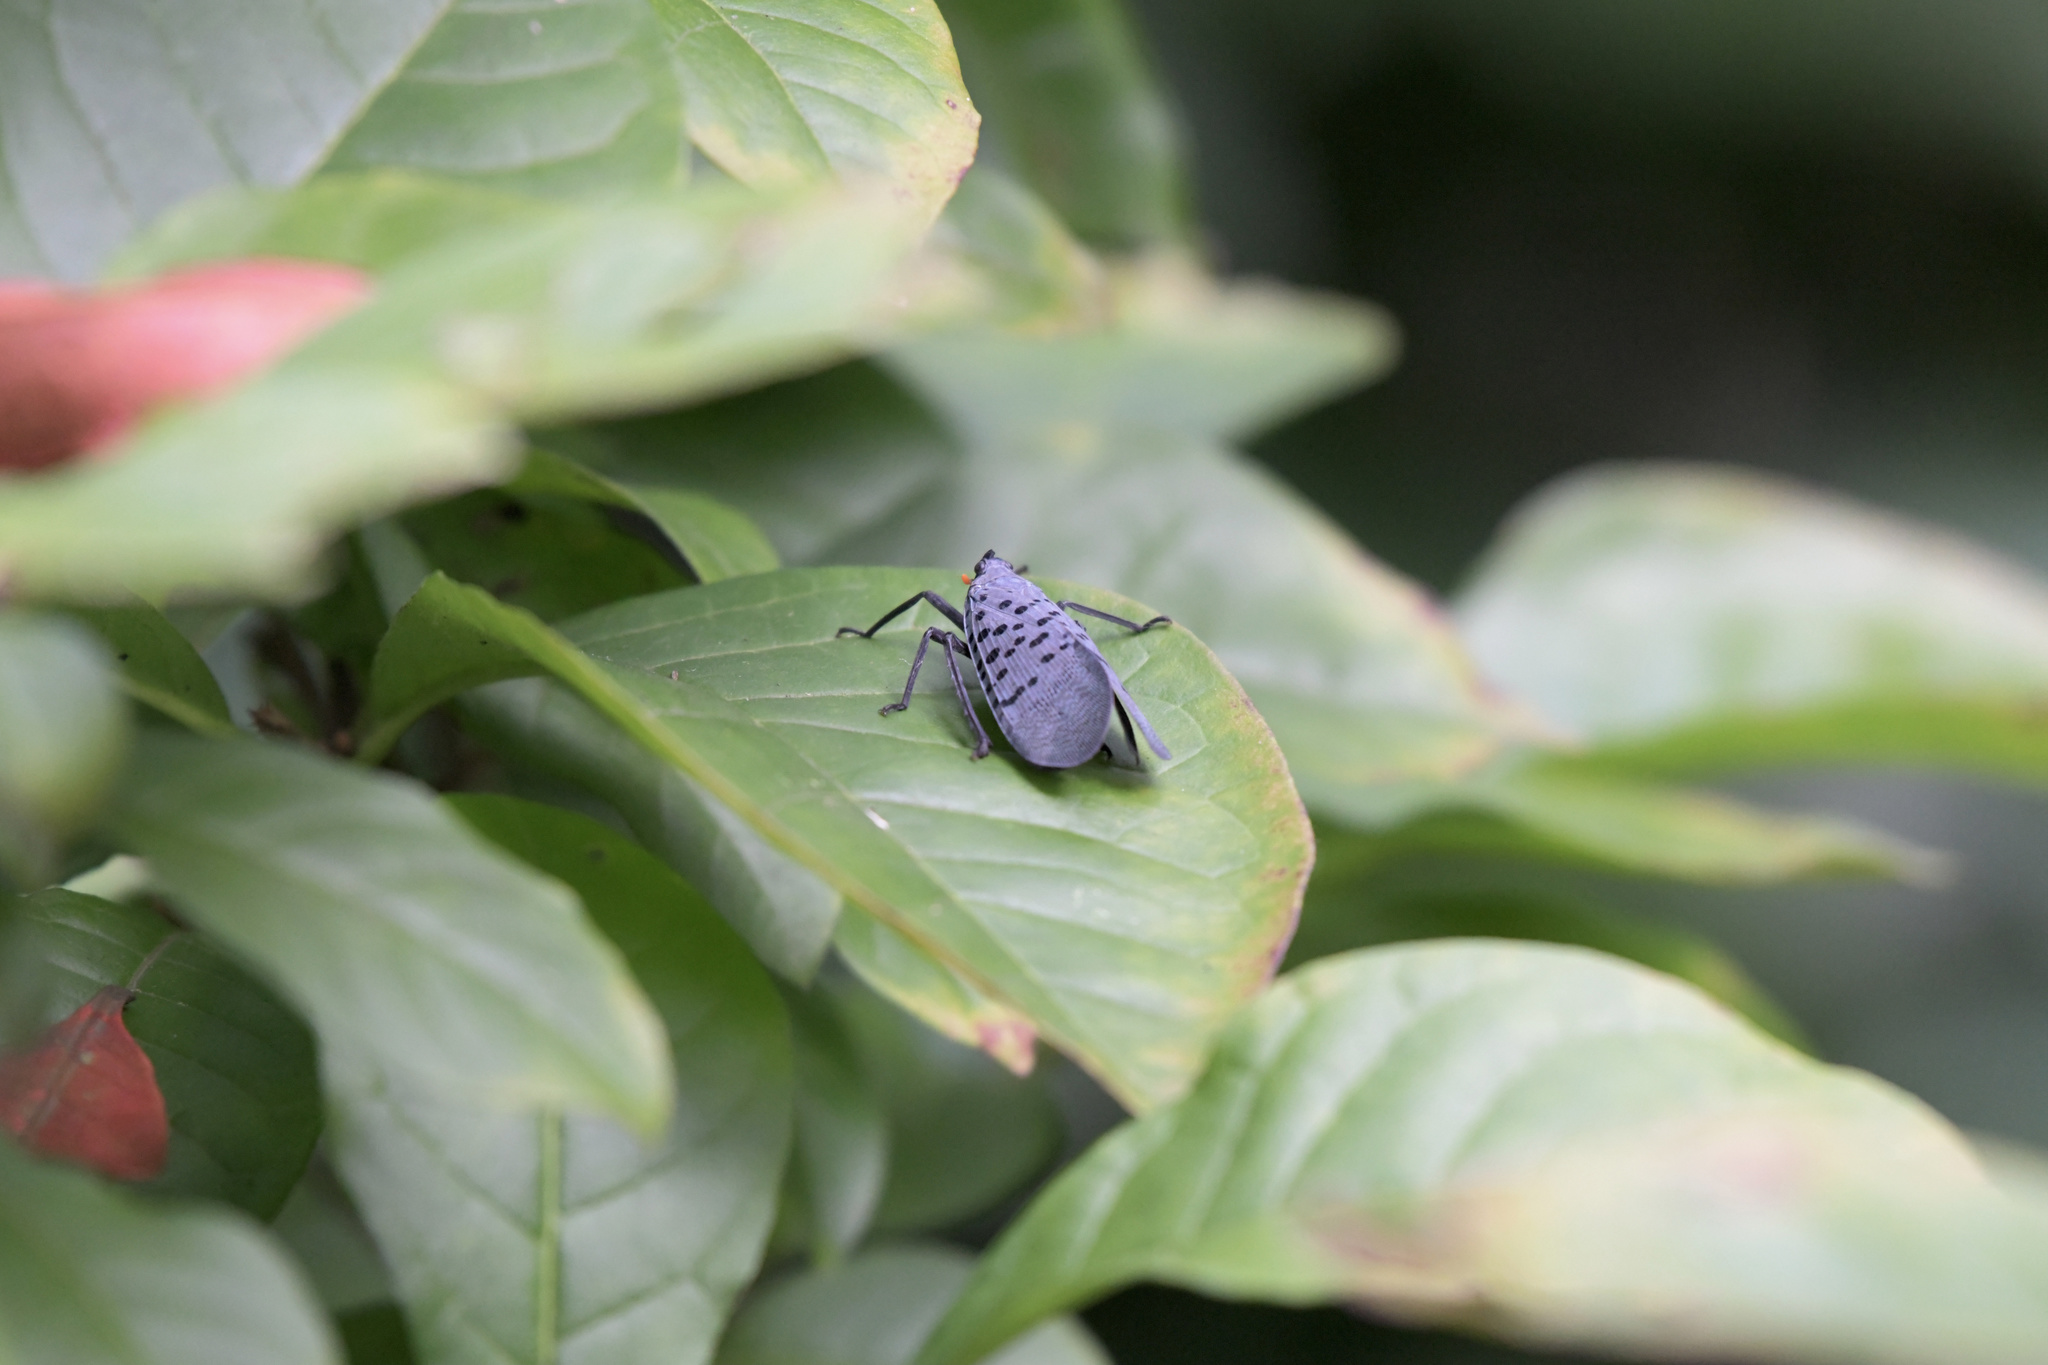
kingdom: Animalia
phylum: Arthropoda
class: Insecta
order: Hemiptera
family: Fulgoridae
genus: Lycorma
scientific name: Lycorma delicatula
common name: Spotted lanternfly
